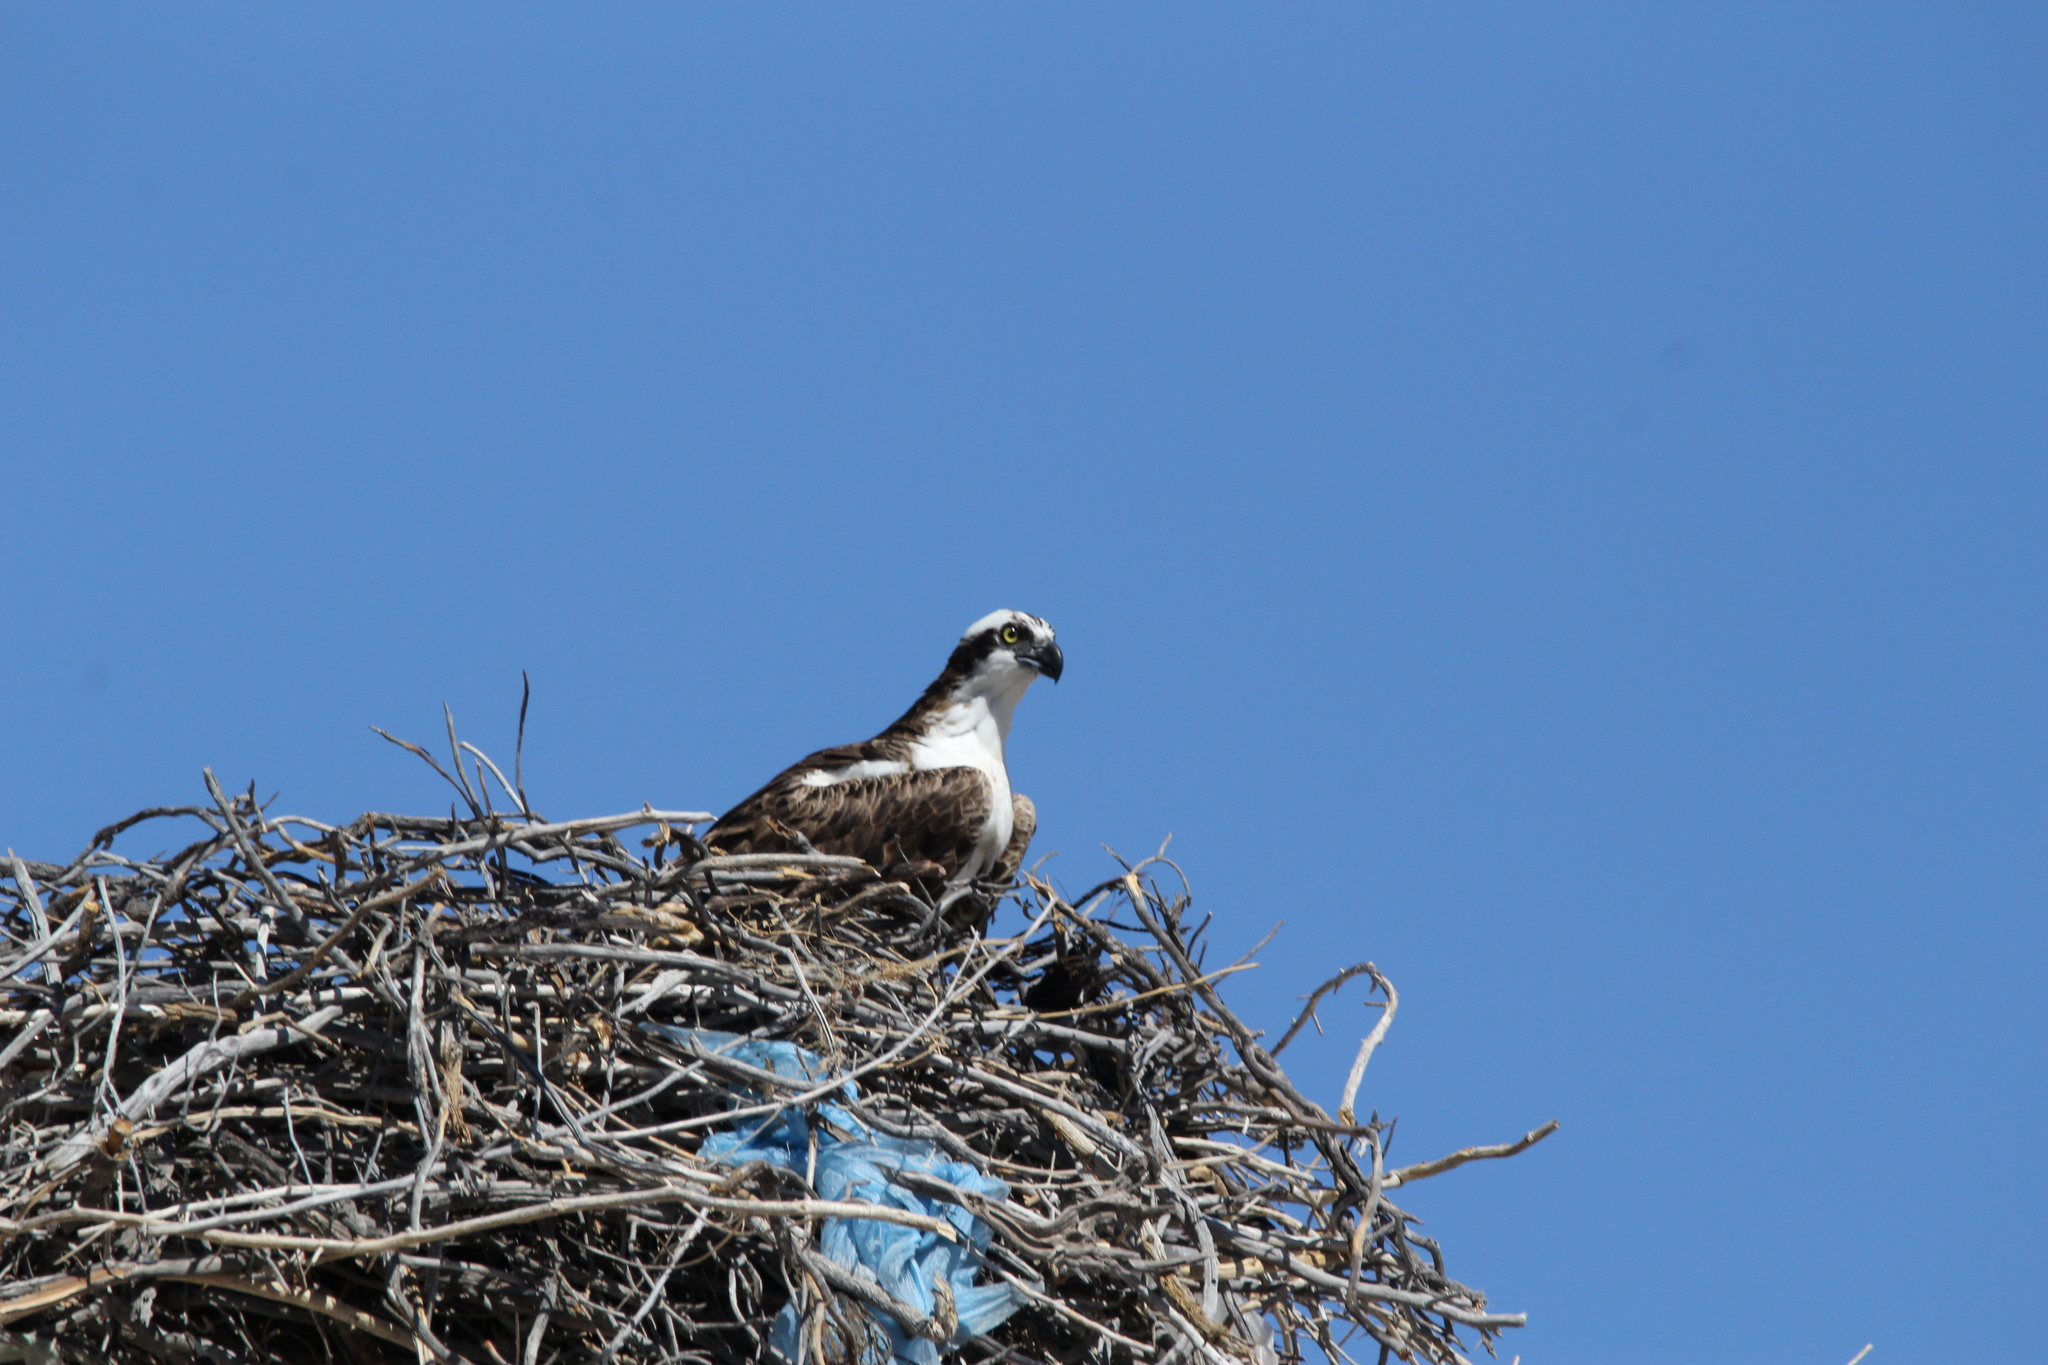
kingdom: Animalia
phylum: Chordata
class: Aves
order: Accipitriformes
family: Pandionidae
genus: Pandion
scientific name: Pandion haliaetus
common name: Osprey
